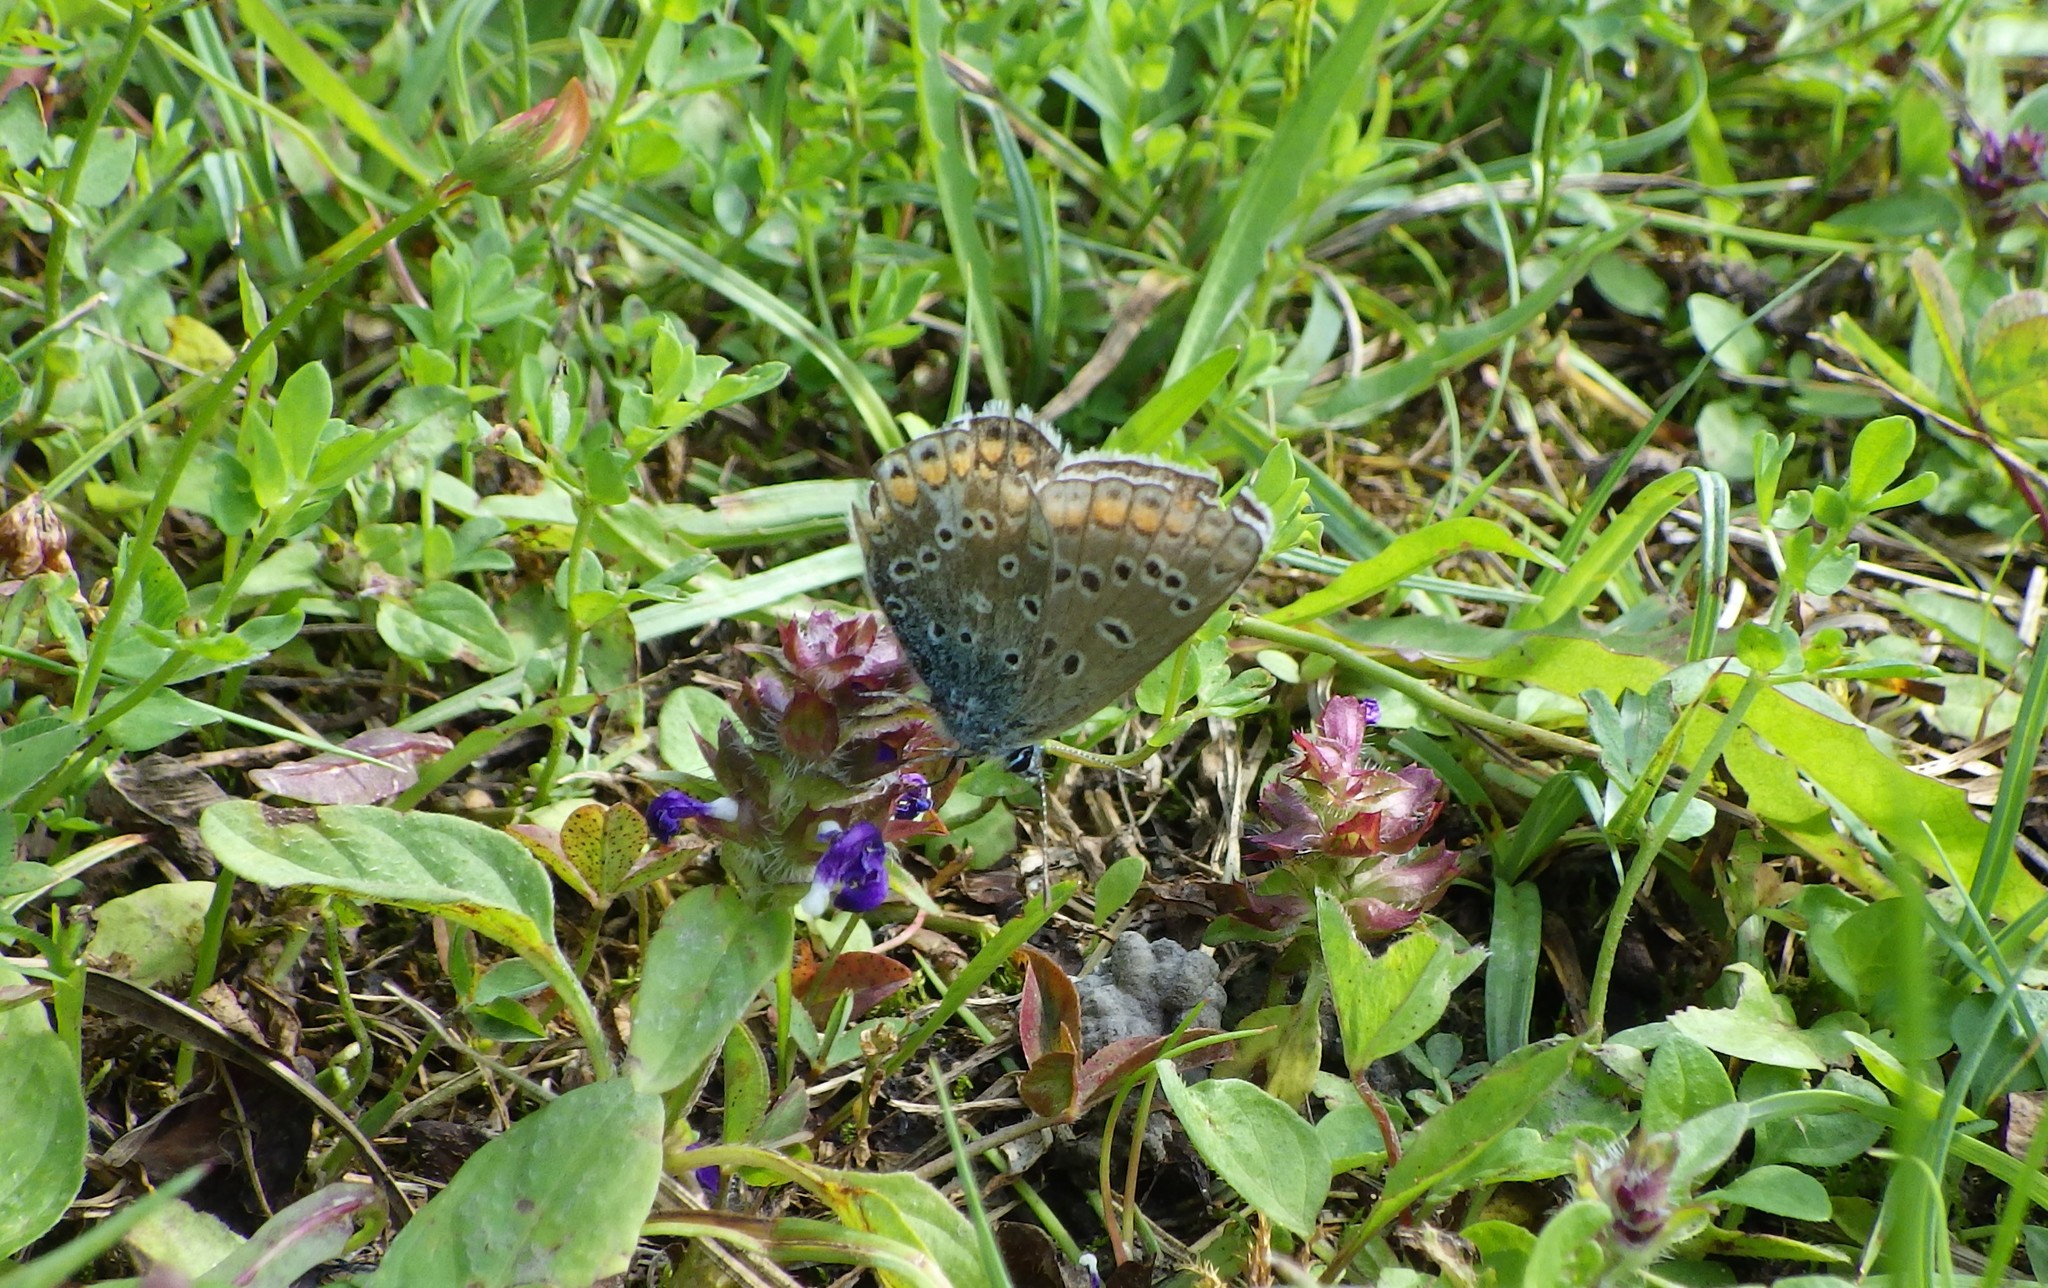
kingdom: Animalia
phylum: Arthropoda
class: Insecta
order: Lepidoptera
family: Lycaenidae
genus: Polyommatus
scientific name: Polyommatus icarus
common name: Common blue
